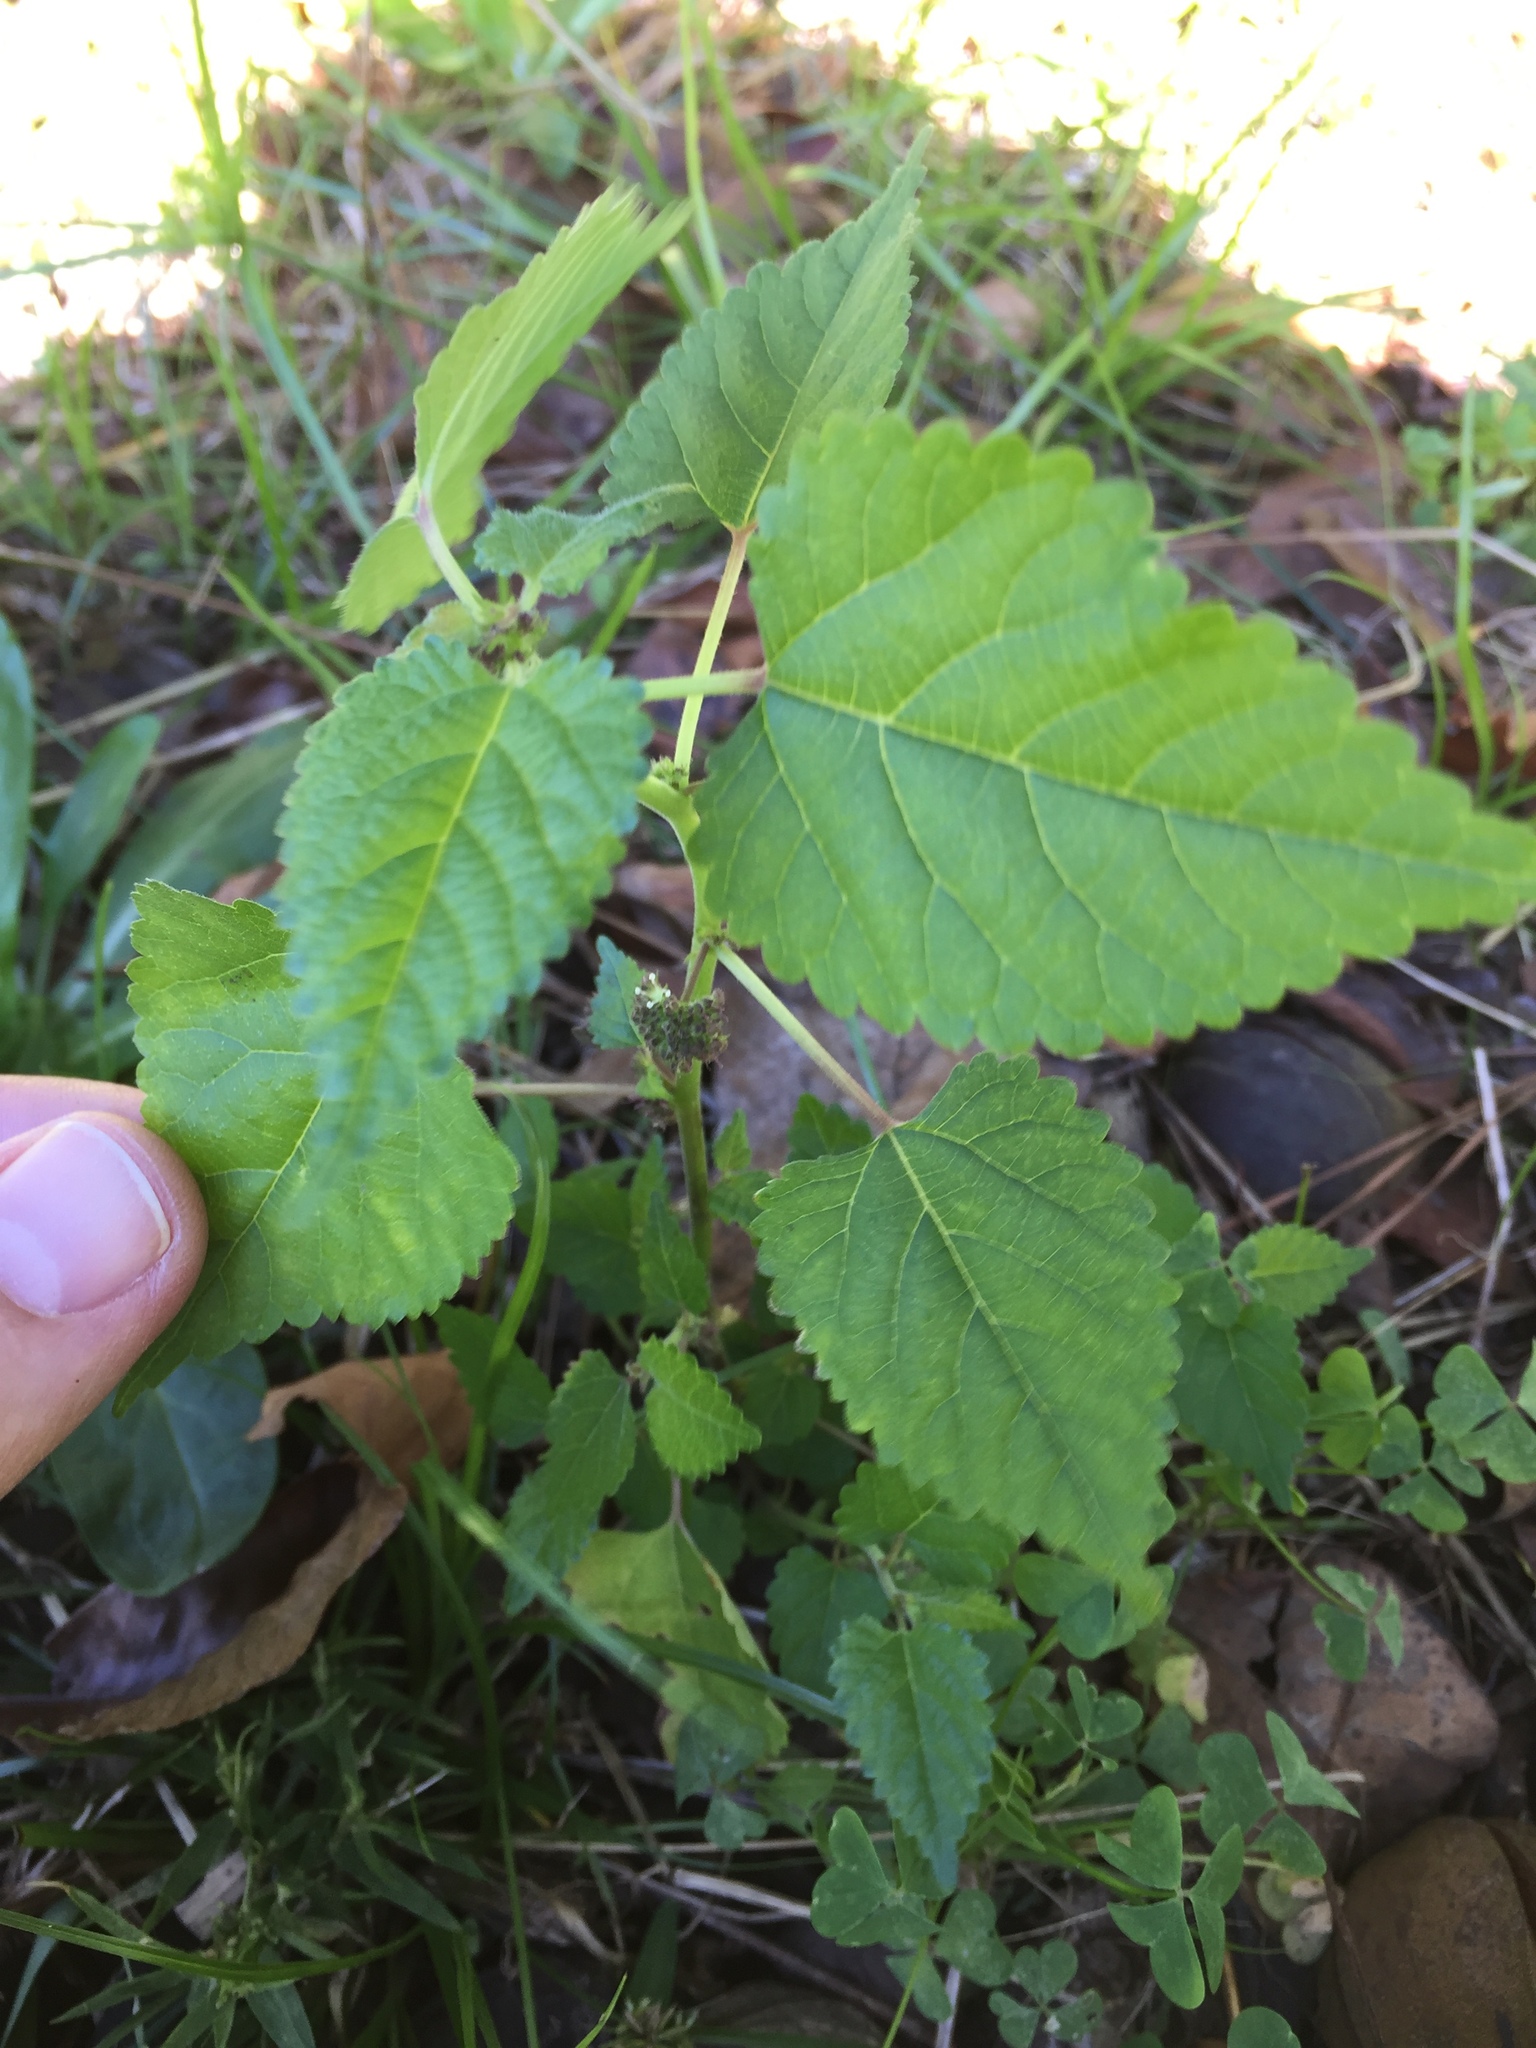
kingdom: Plantae
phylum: Tracheophyta
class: Magnoliopsida
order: Rosales
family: Moraceae
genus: Fatoua
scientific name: Fatoua villosa
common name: Hairy crabweed
